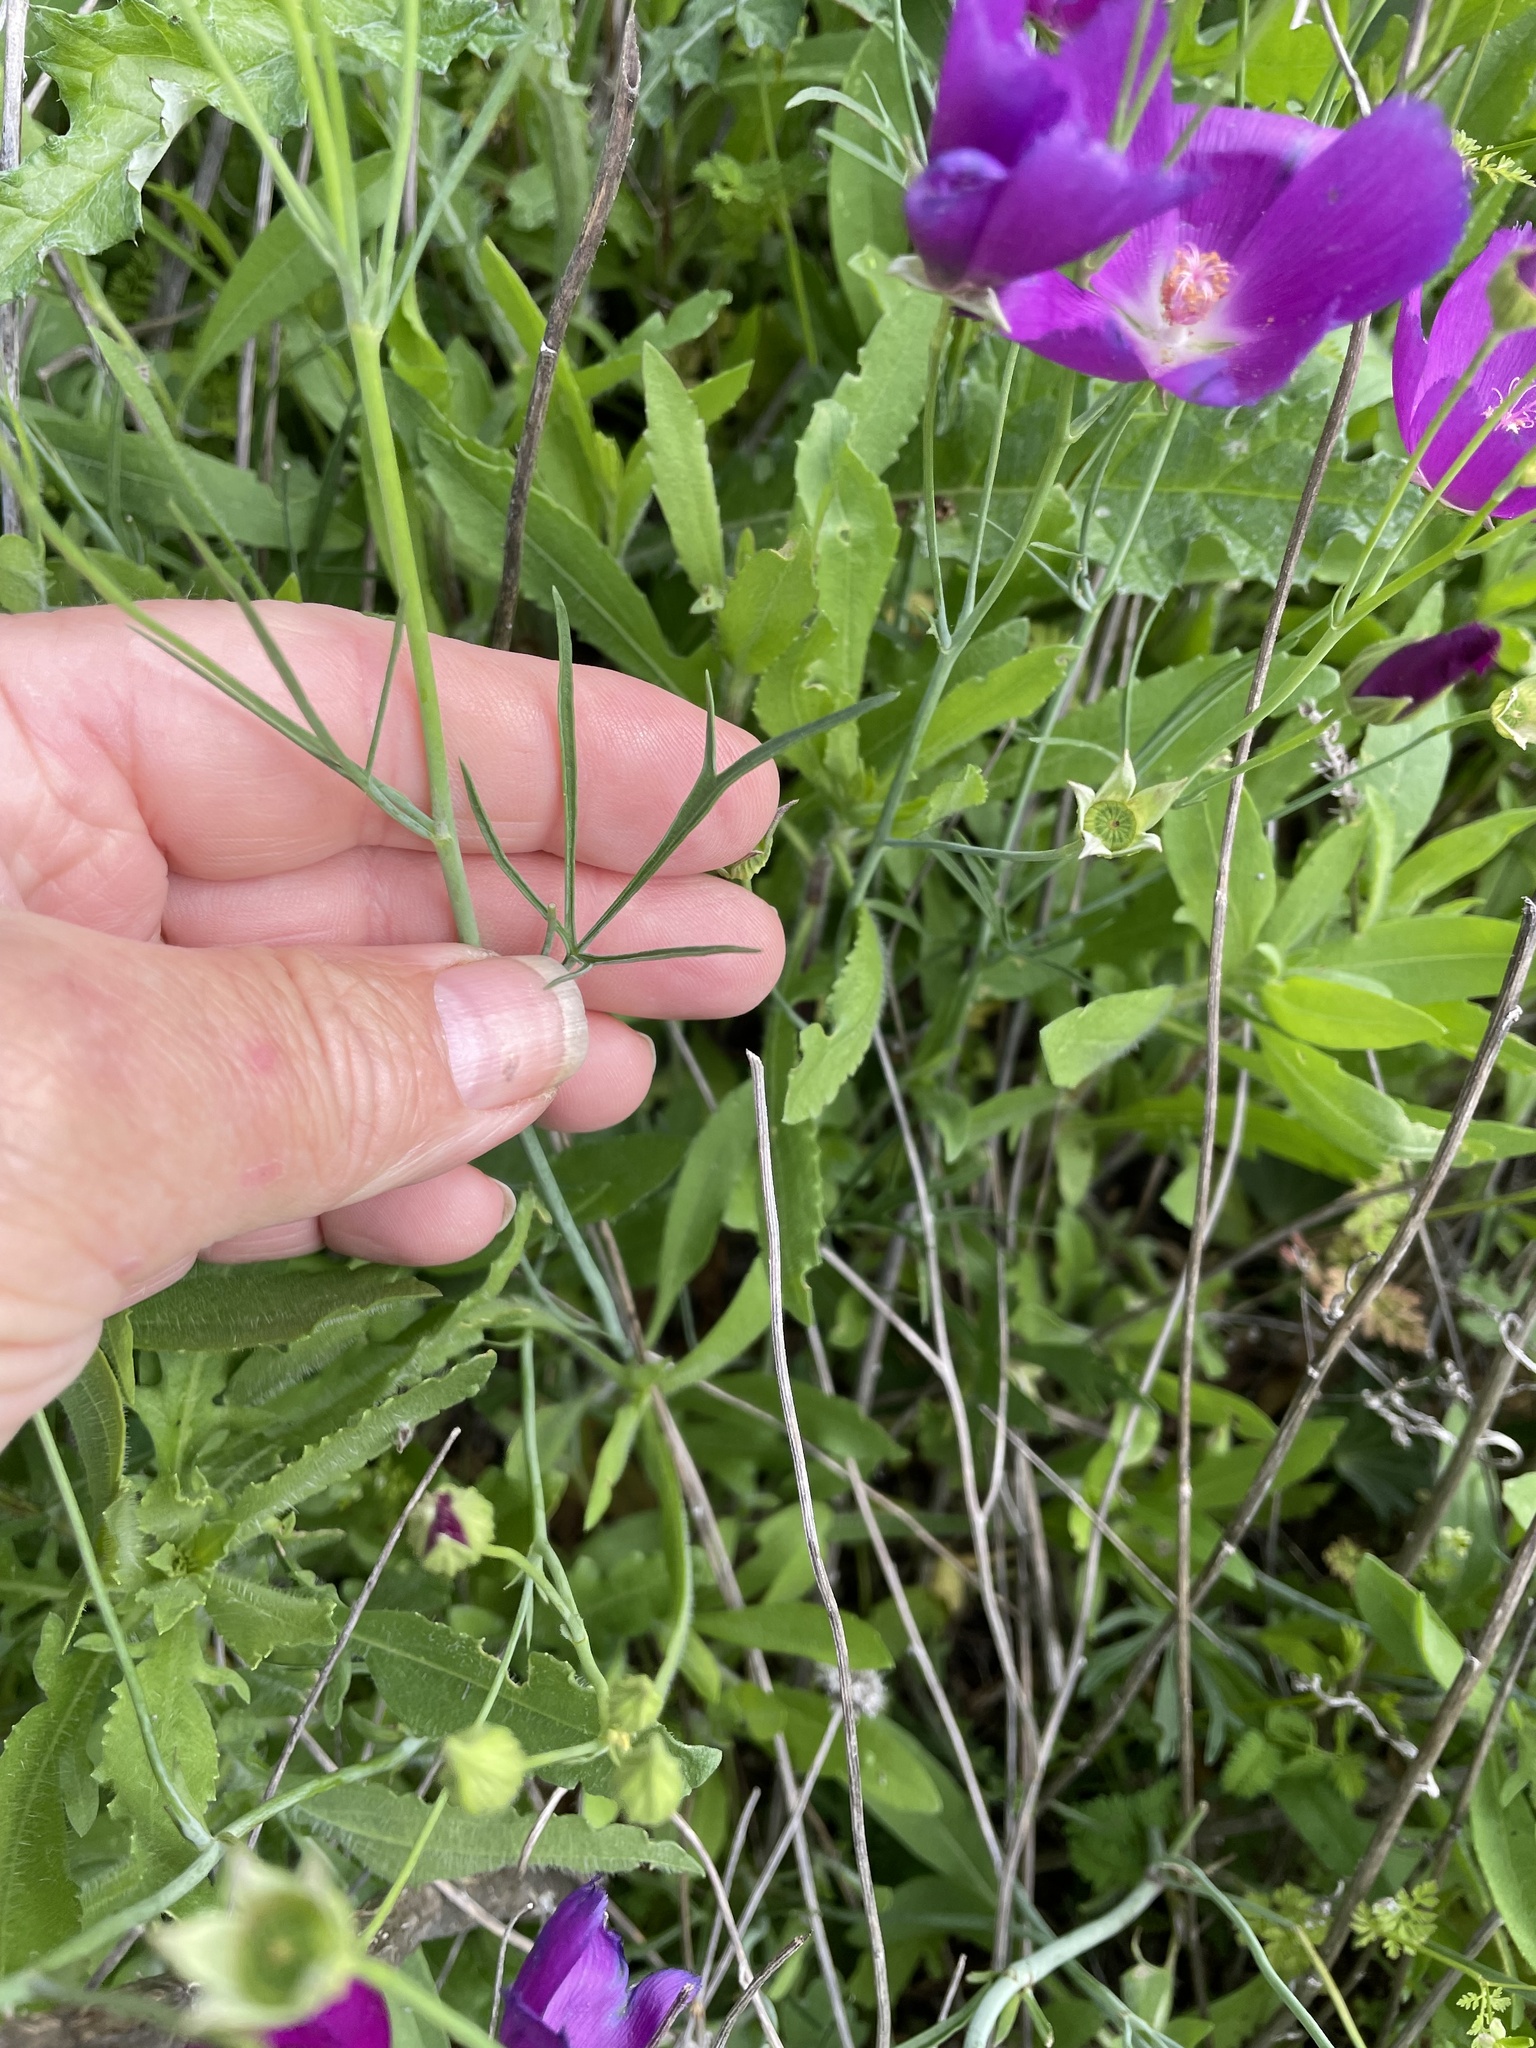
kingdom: Plantae
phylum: Tracheophyta
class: Magnoliopsida
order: Malvales
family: Malvaceae
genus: Callirhoe
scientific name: Callirhoe pedata
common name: Finger poppy-mallow
